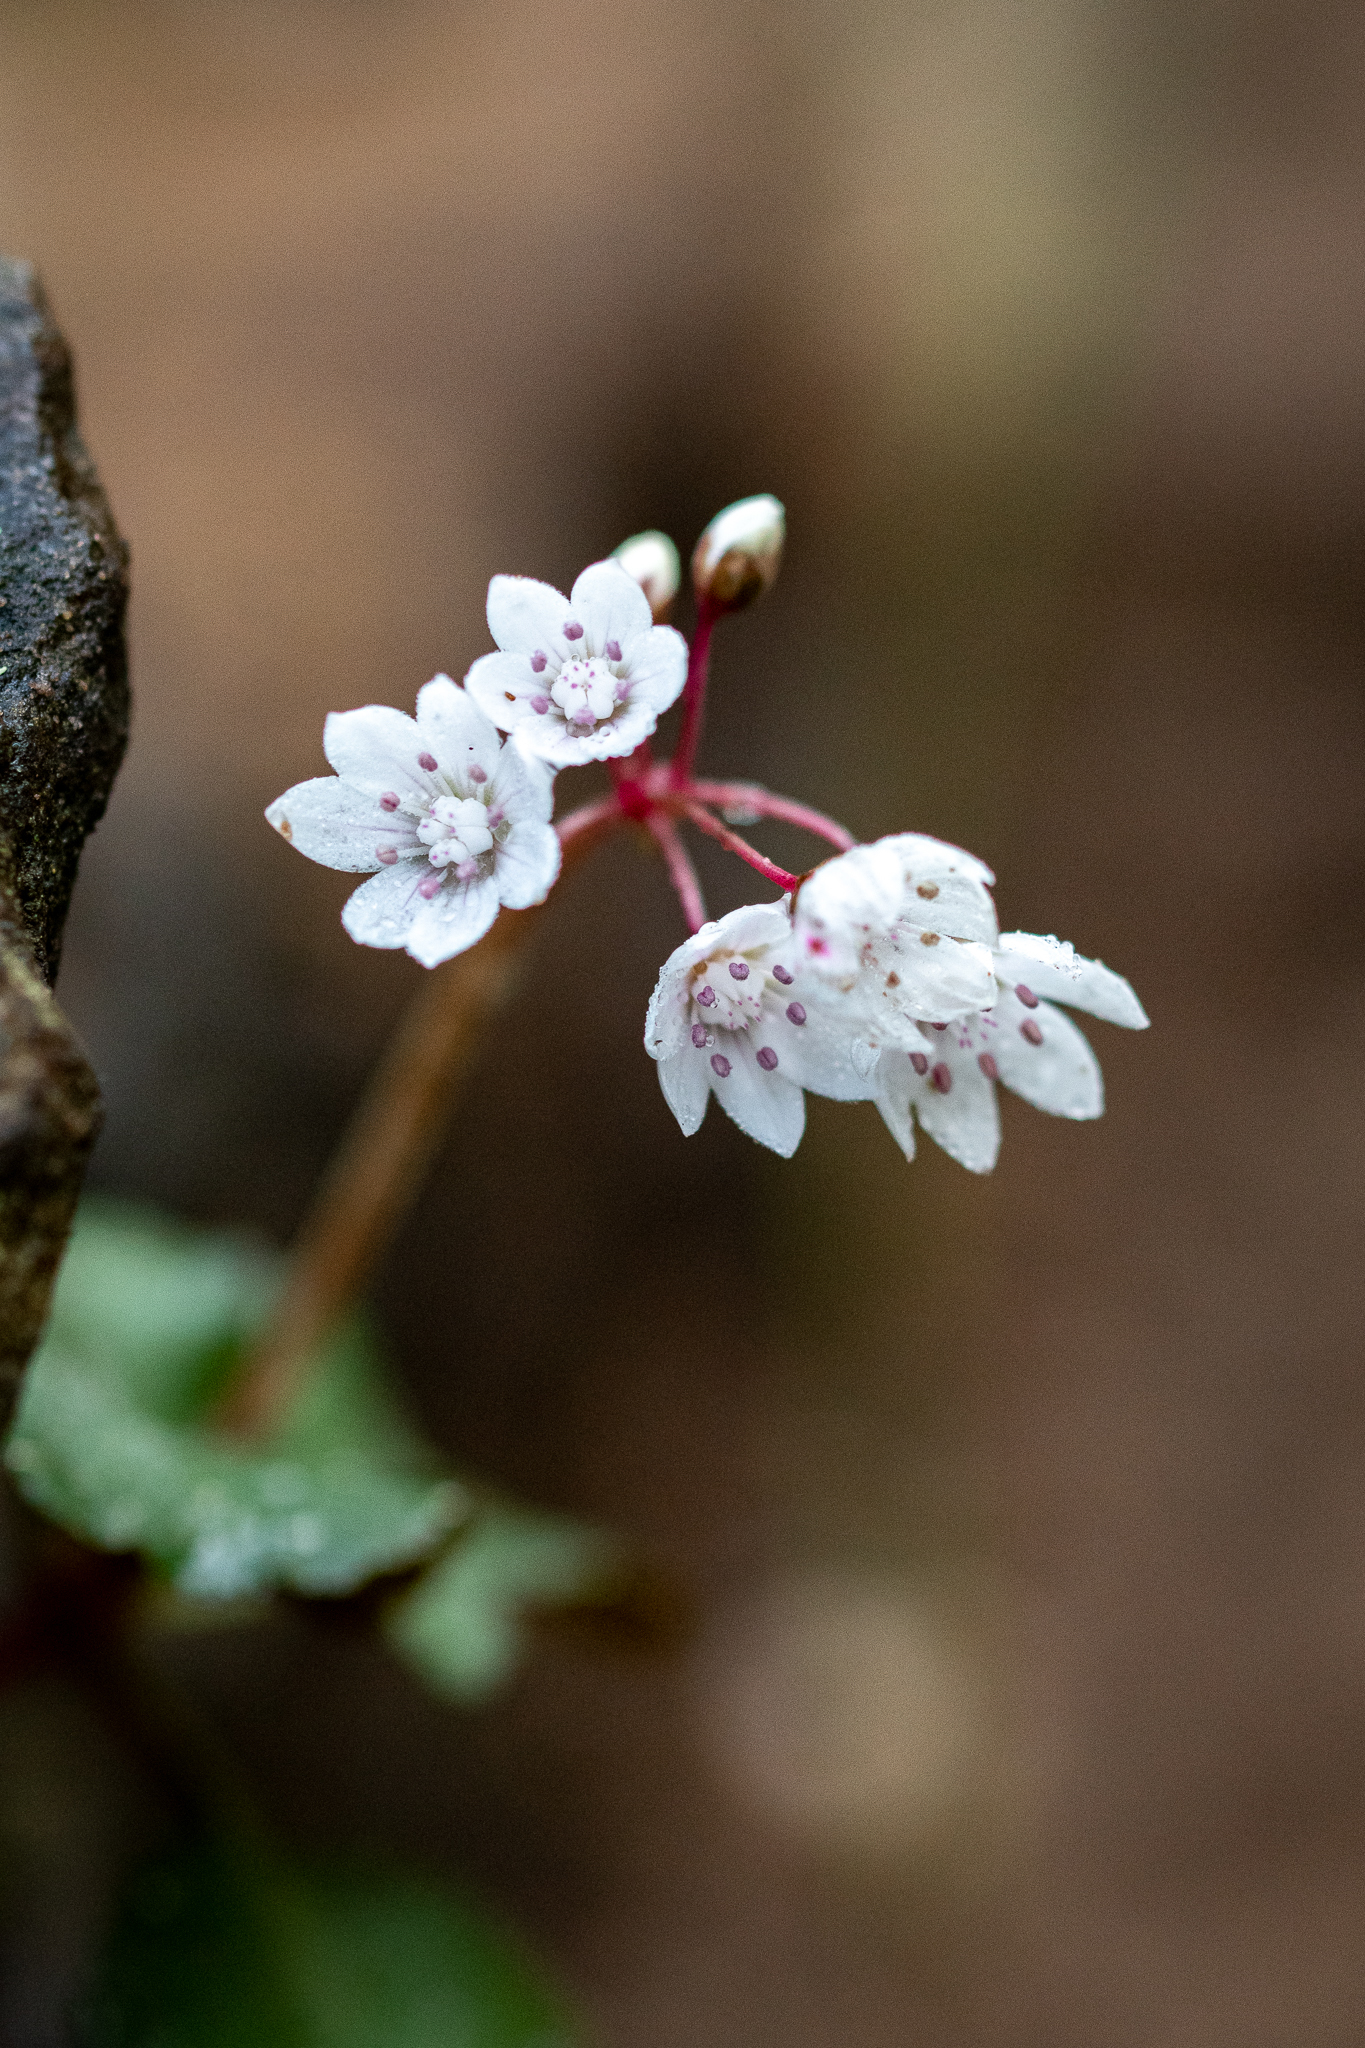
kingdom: Plantae
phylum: Tracheophyta
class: Magnoliopsida
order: Saxifragales
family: Crassulaceae
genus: Crassula
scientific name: Crassula capensis
